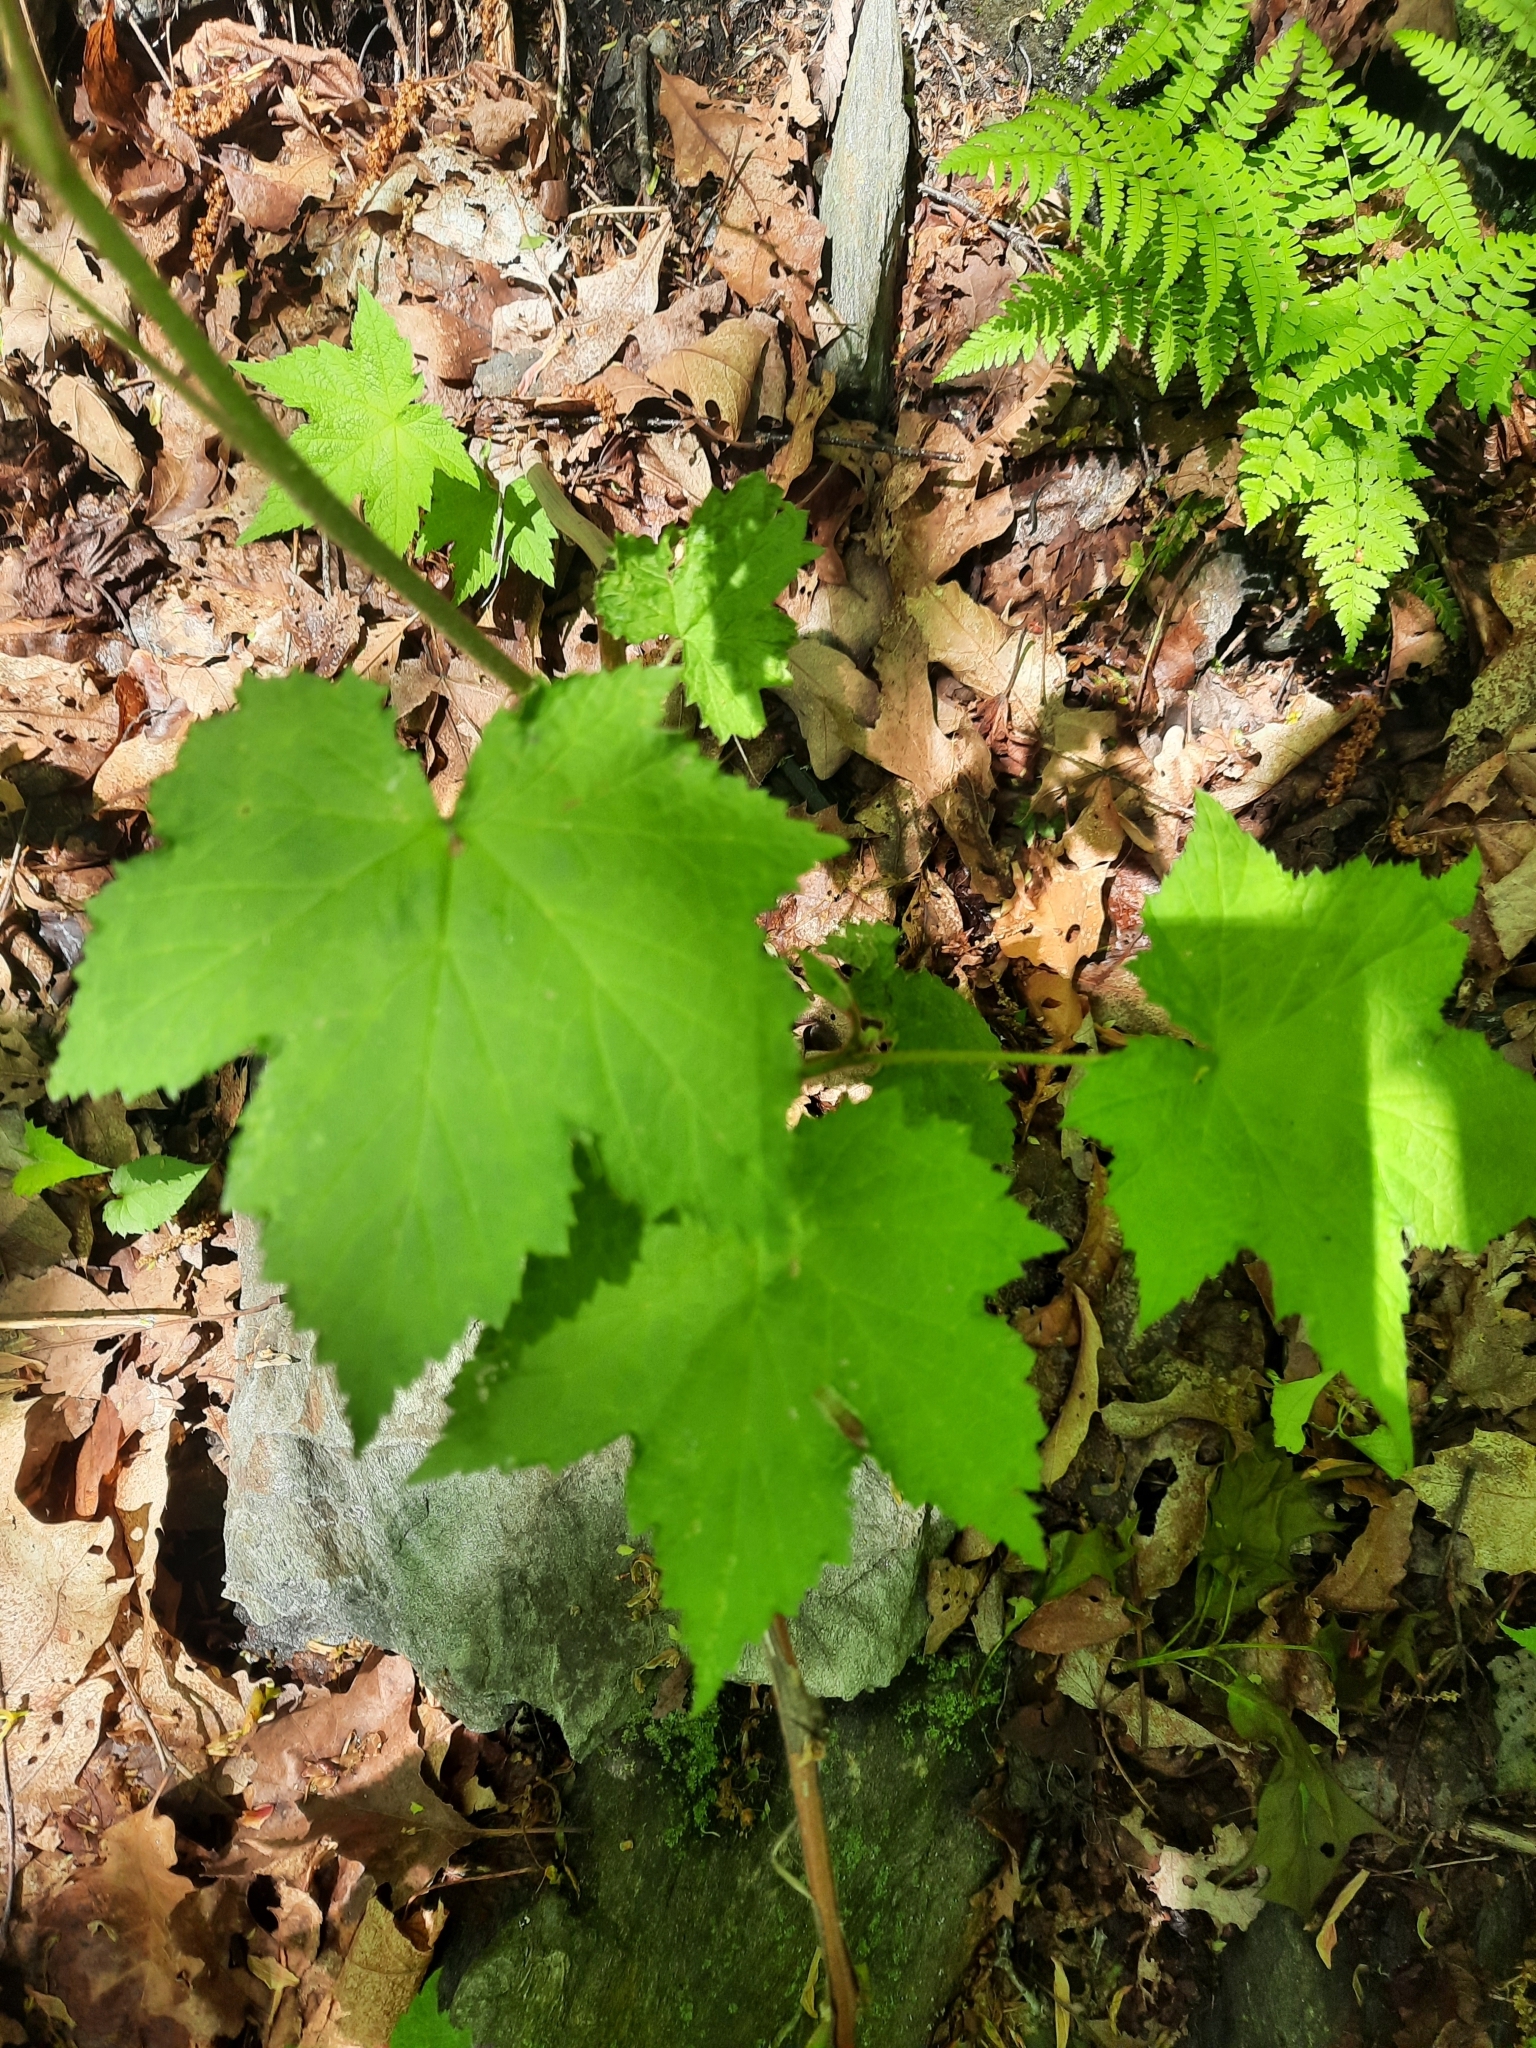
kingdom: Plantae
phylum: Tracheophyta
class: Magnoliopsida
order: Rosales
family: Rosaceae
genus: Rubus
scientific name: Rubus odoratus
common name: Purple-flowered raspberry
